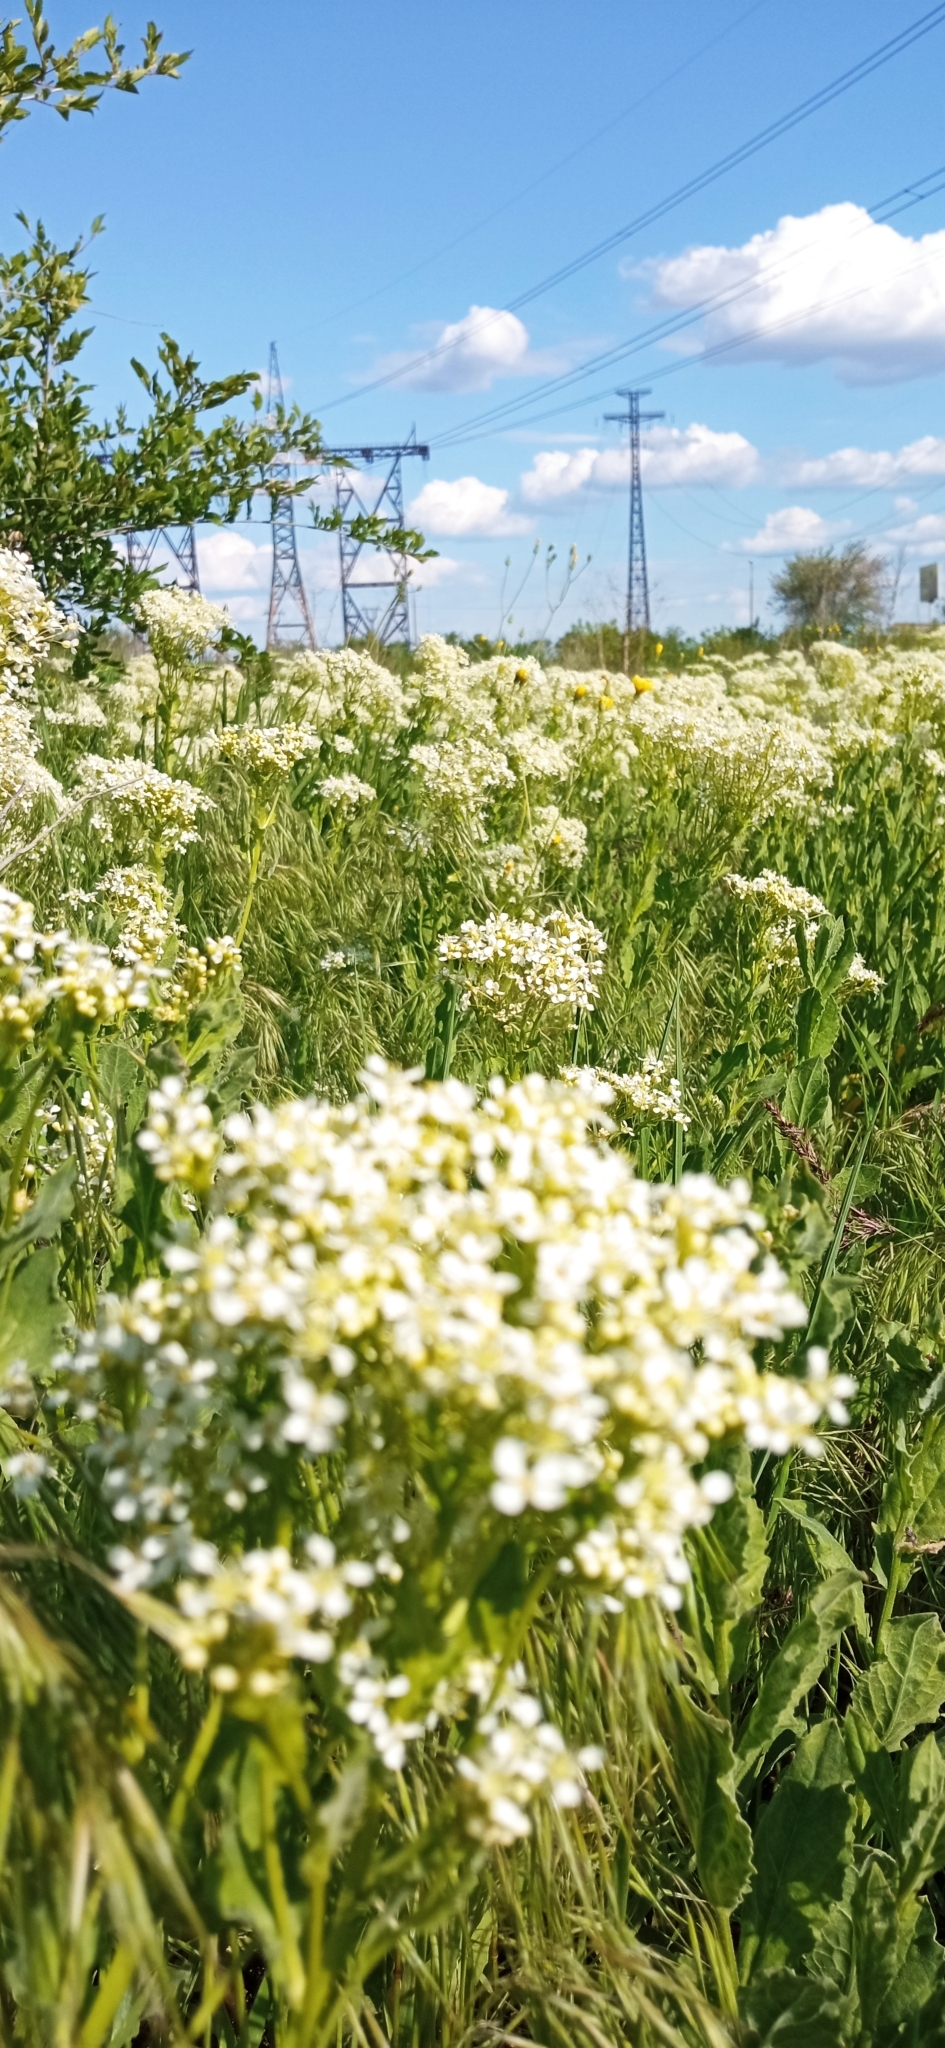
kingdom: Plantae
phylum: Tracheophyta
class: Magnoliopsida
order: Brassicales
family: Brassicaceae
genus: Lepidium
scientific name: Lepidium draba
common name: Hoary cress
